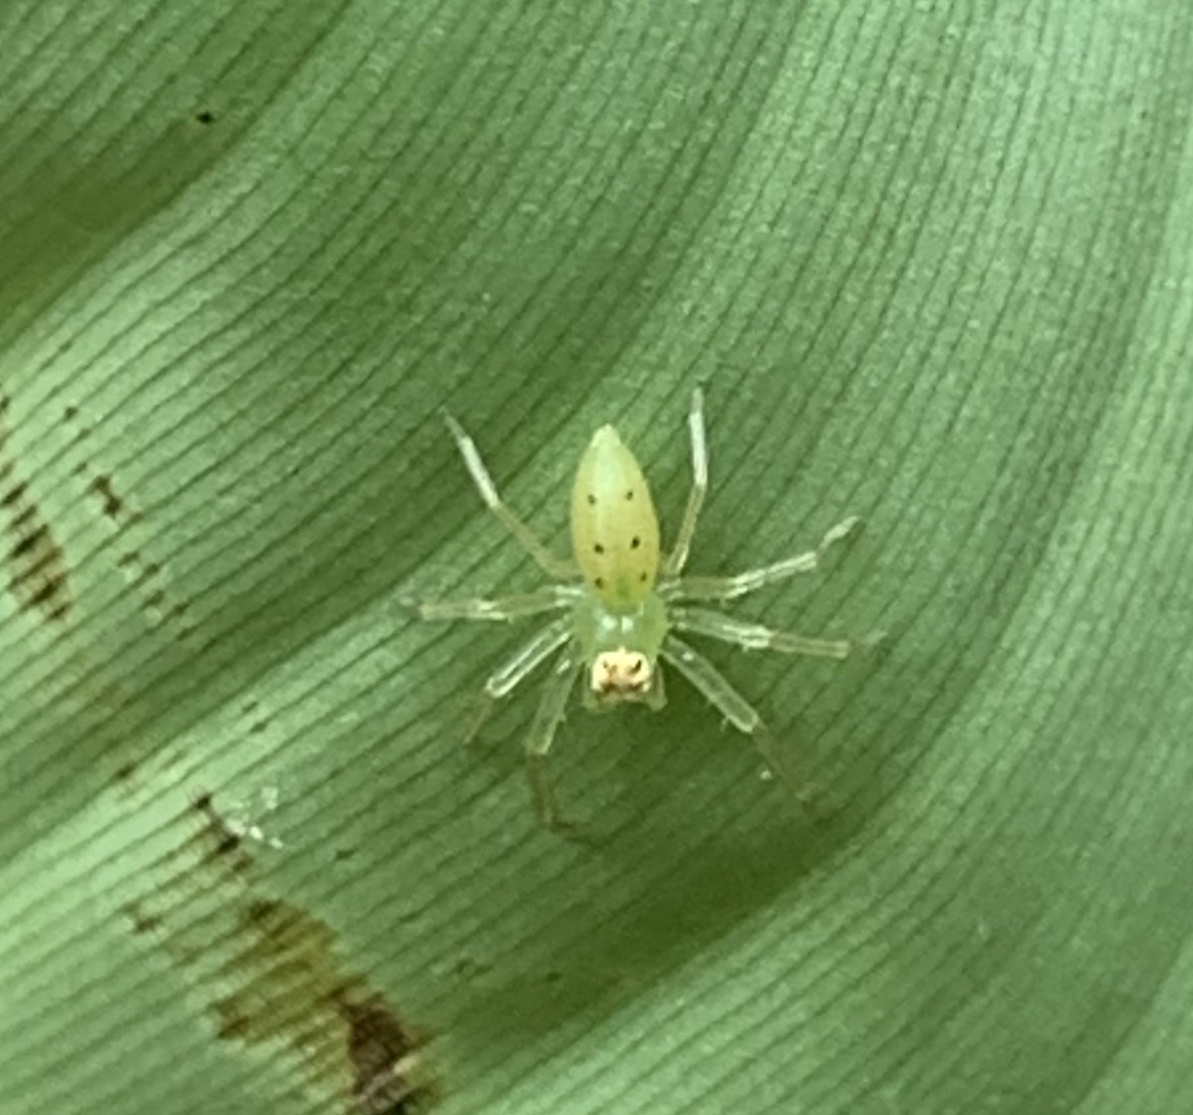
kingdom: Animalia
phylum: Arthropoda
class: Arachnida
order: Araneae
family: Salticidae
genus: Lyssomanes
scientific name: Lyssomanes viridis
